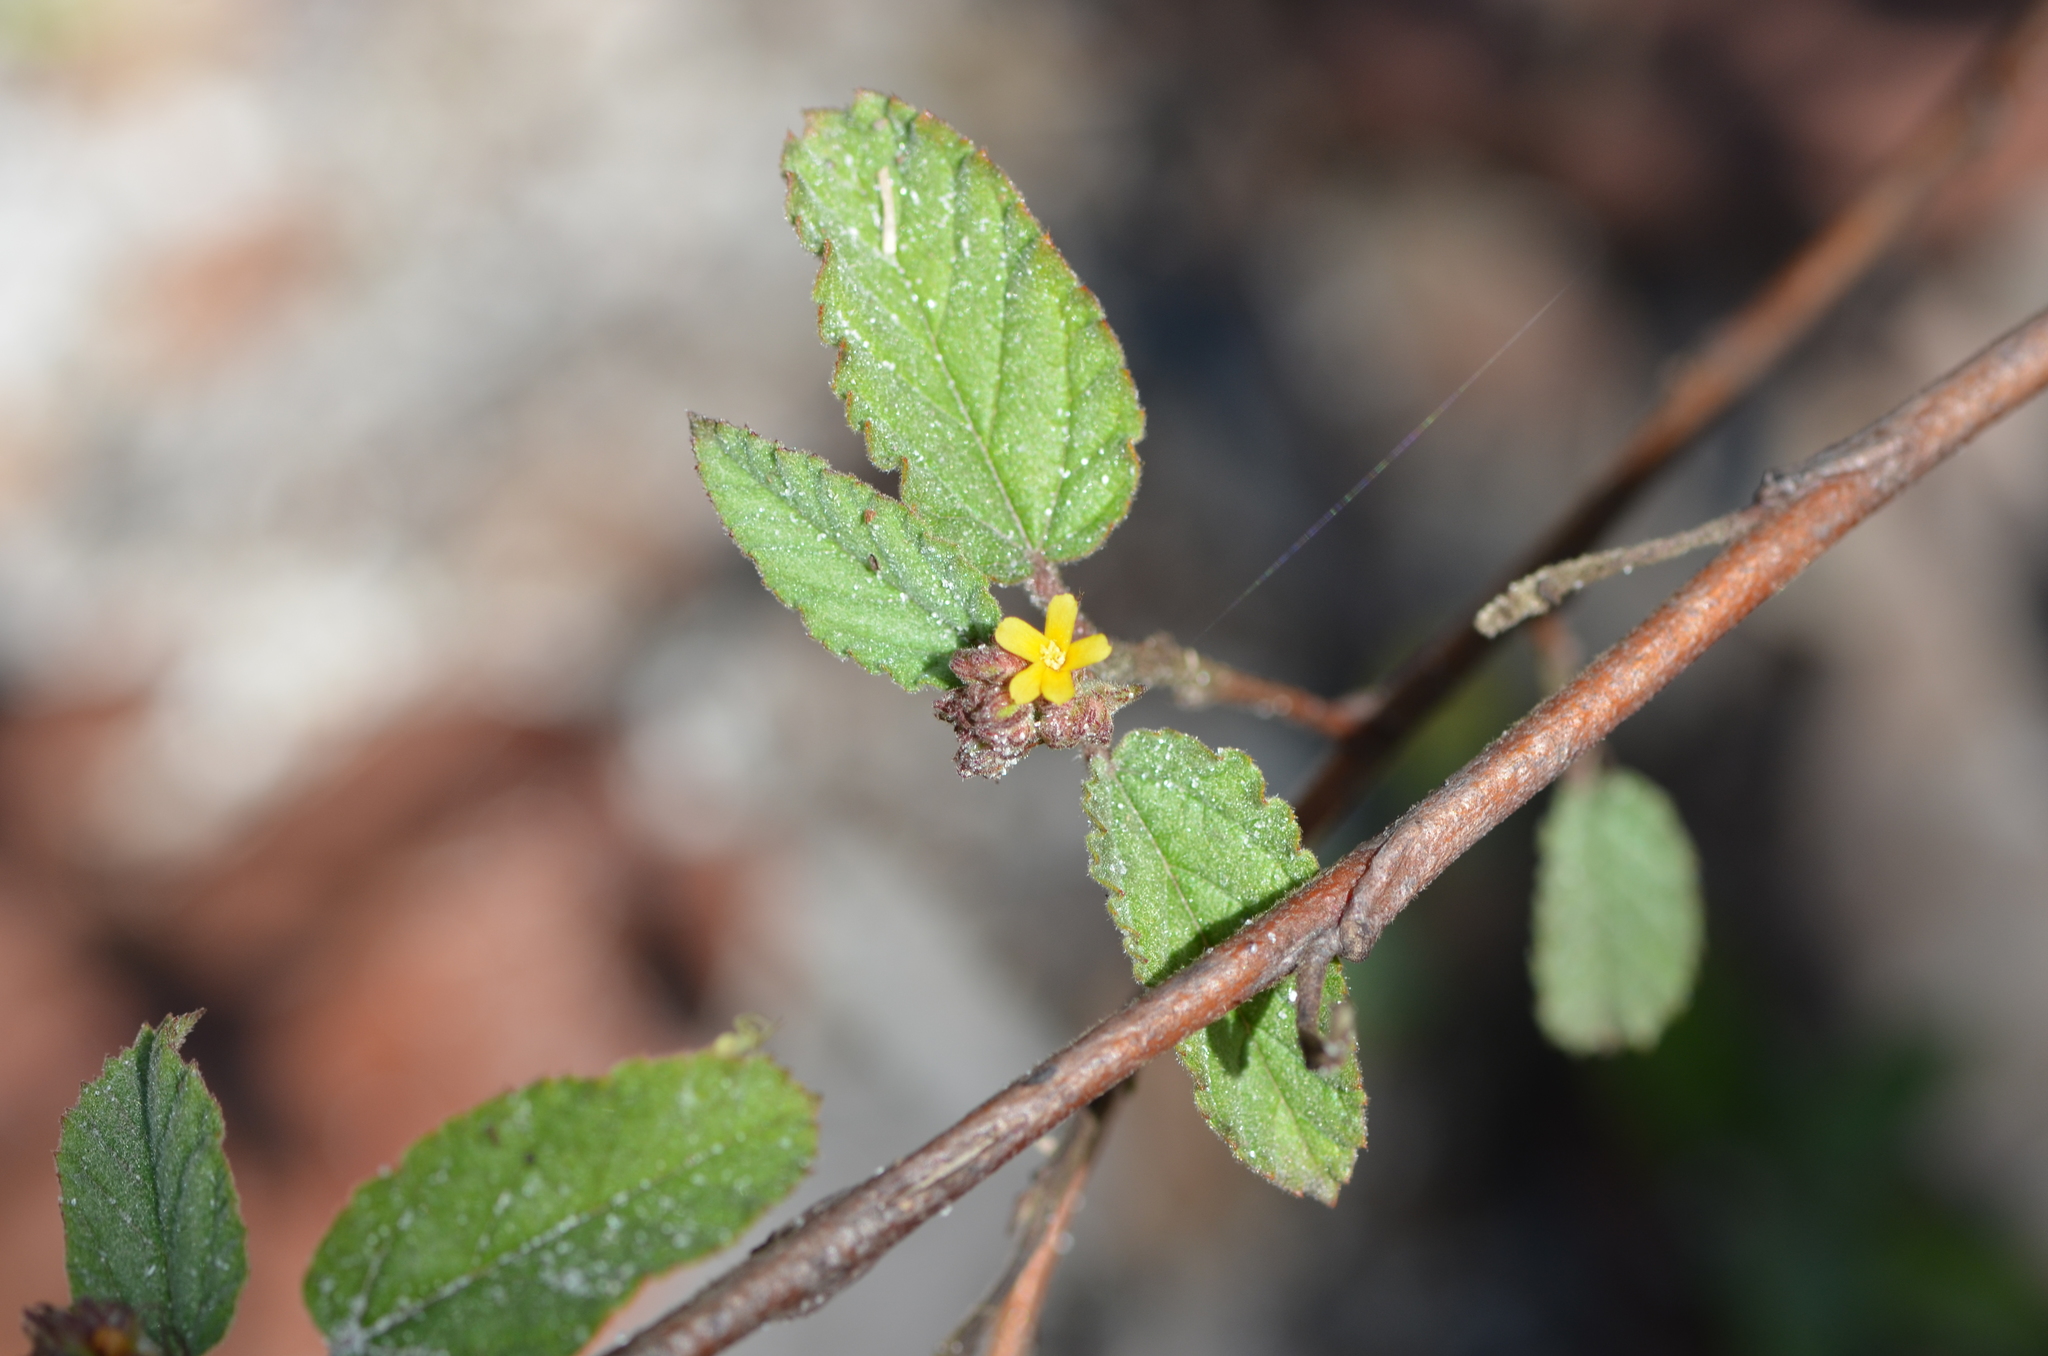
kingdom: Plantae
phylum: Tracheophyta
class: Magnoliopsida
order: Malvales
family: Malvaceae
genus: Waltheria
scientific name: Waltheria indica
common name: Leather-coat
